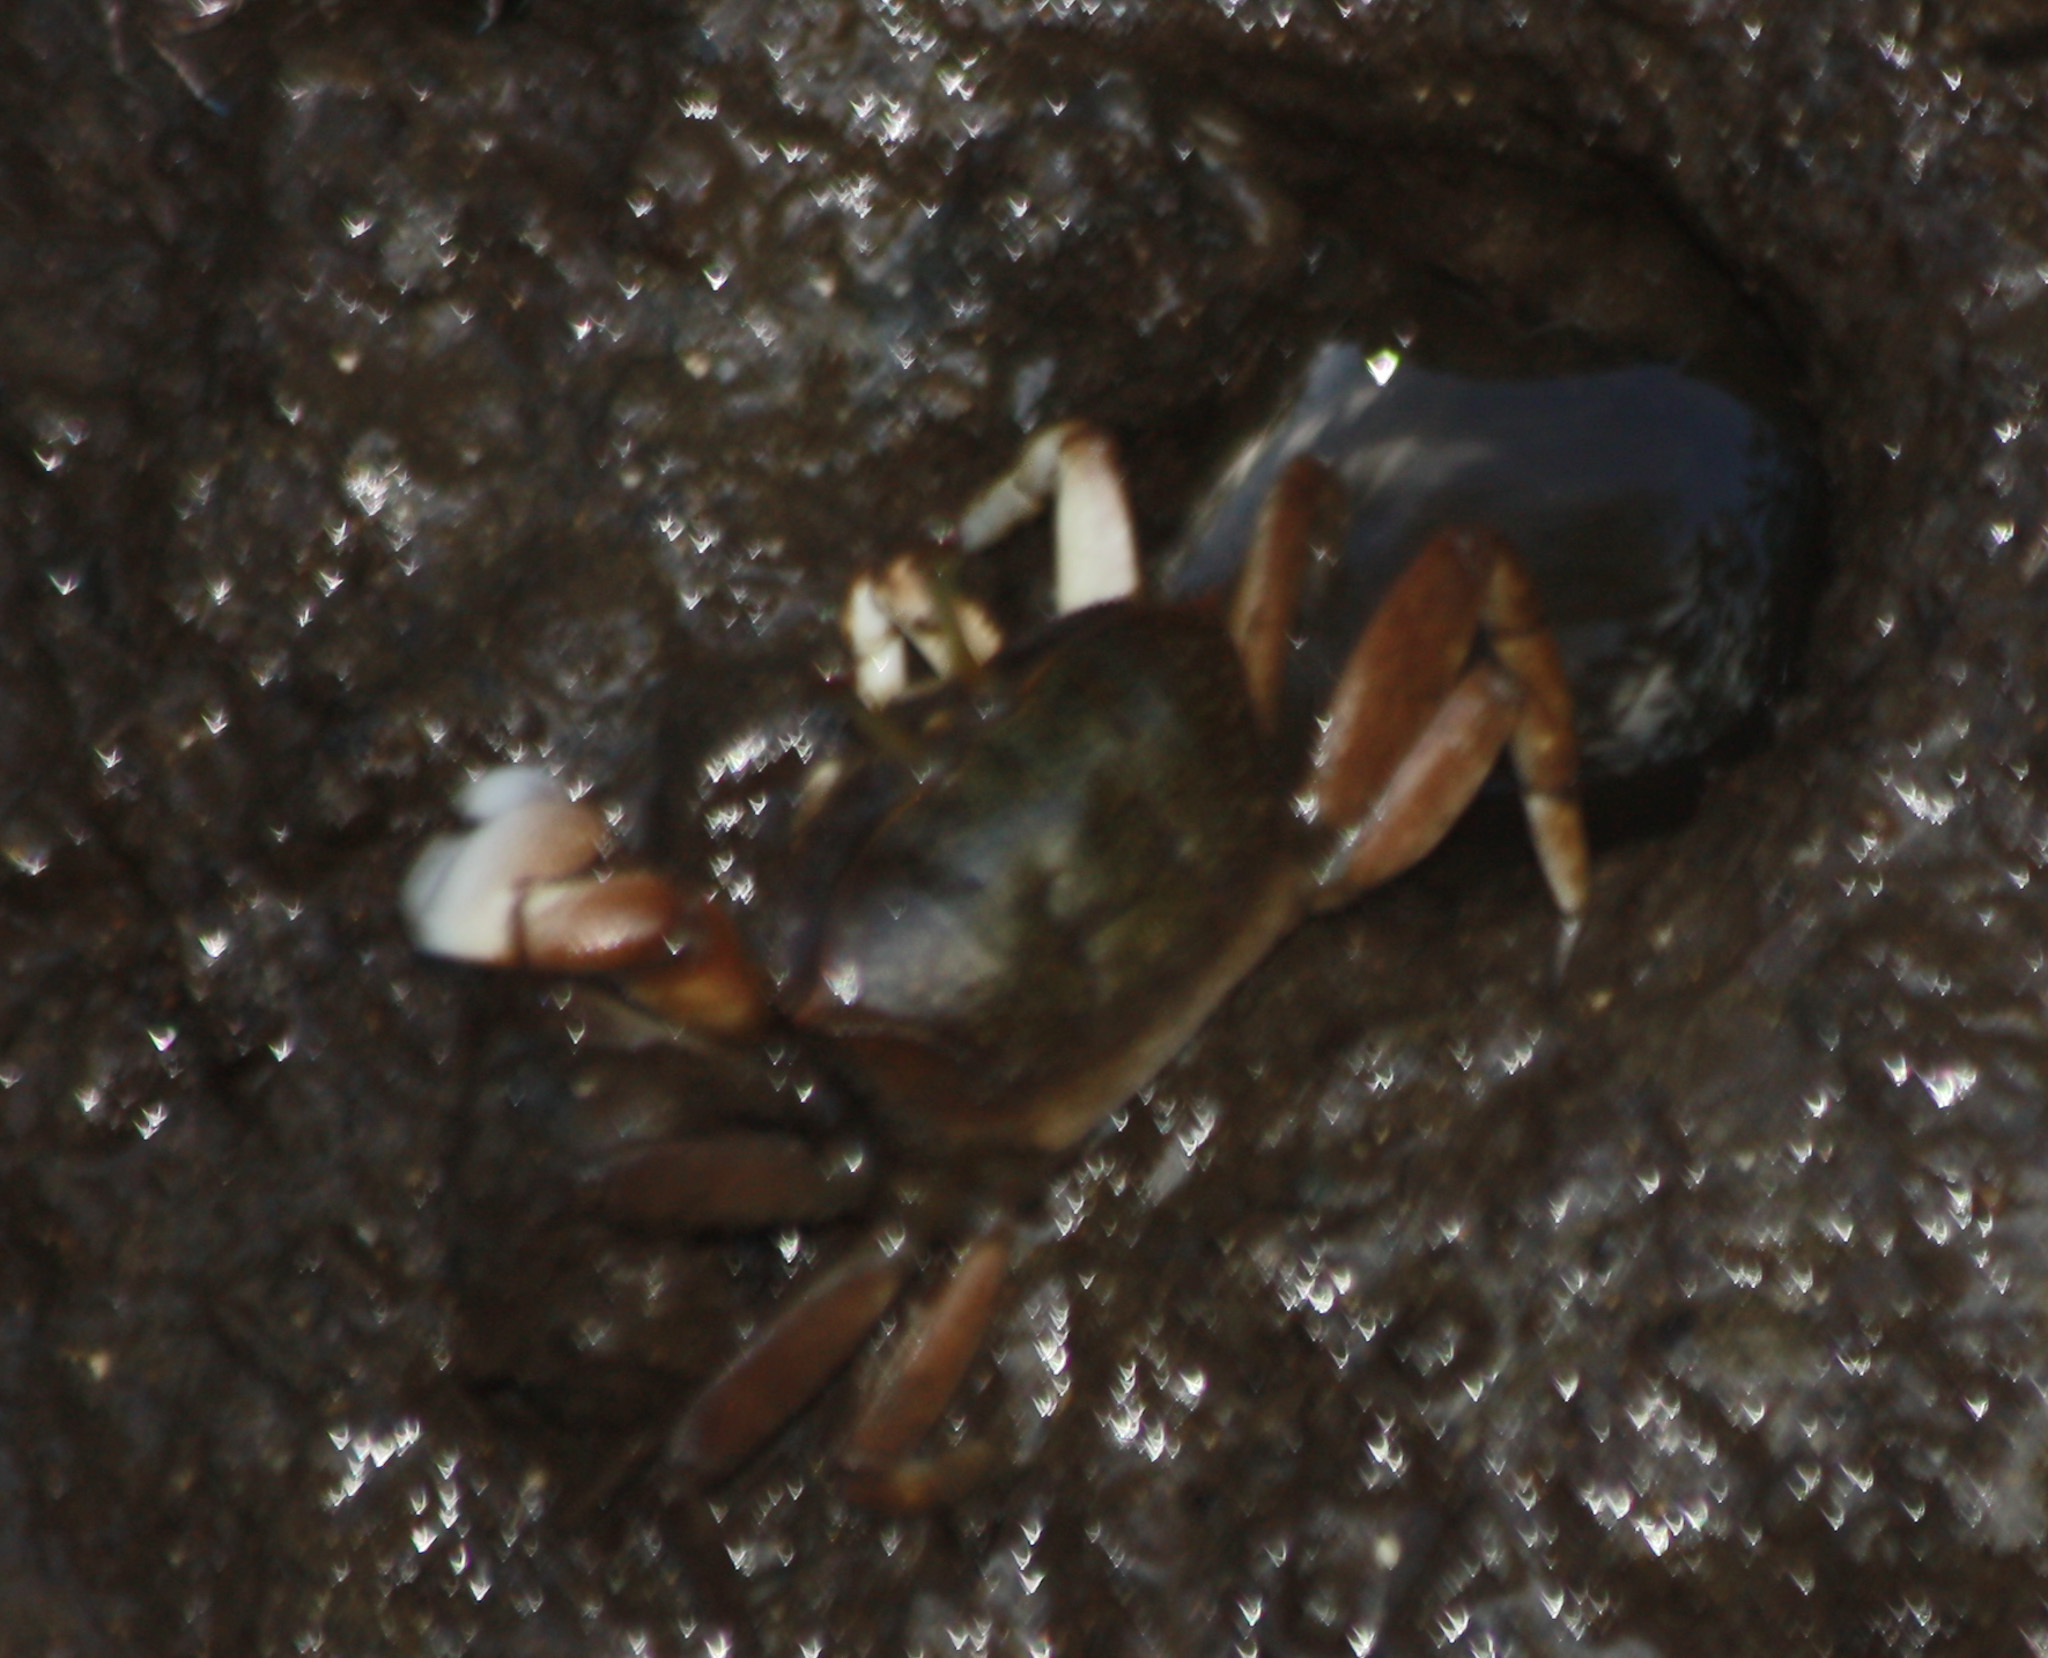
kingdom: Animalia
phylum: Arthropoda
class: Malacostraca
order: Decapoda
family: Ocypodidae
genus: Uca
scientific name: Uca heteropleura
